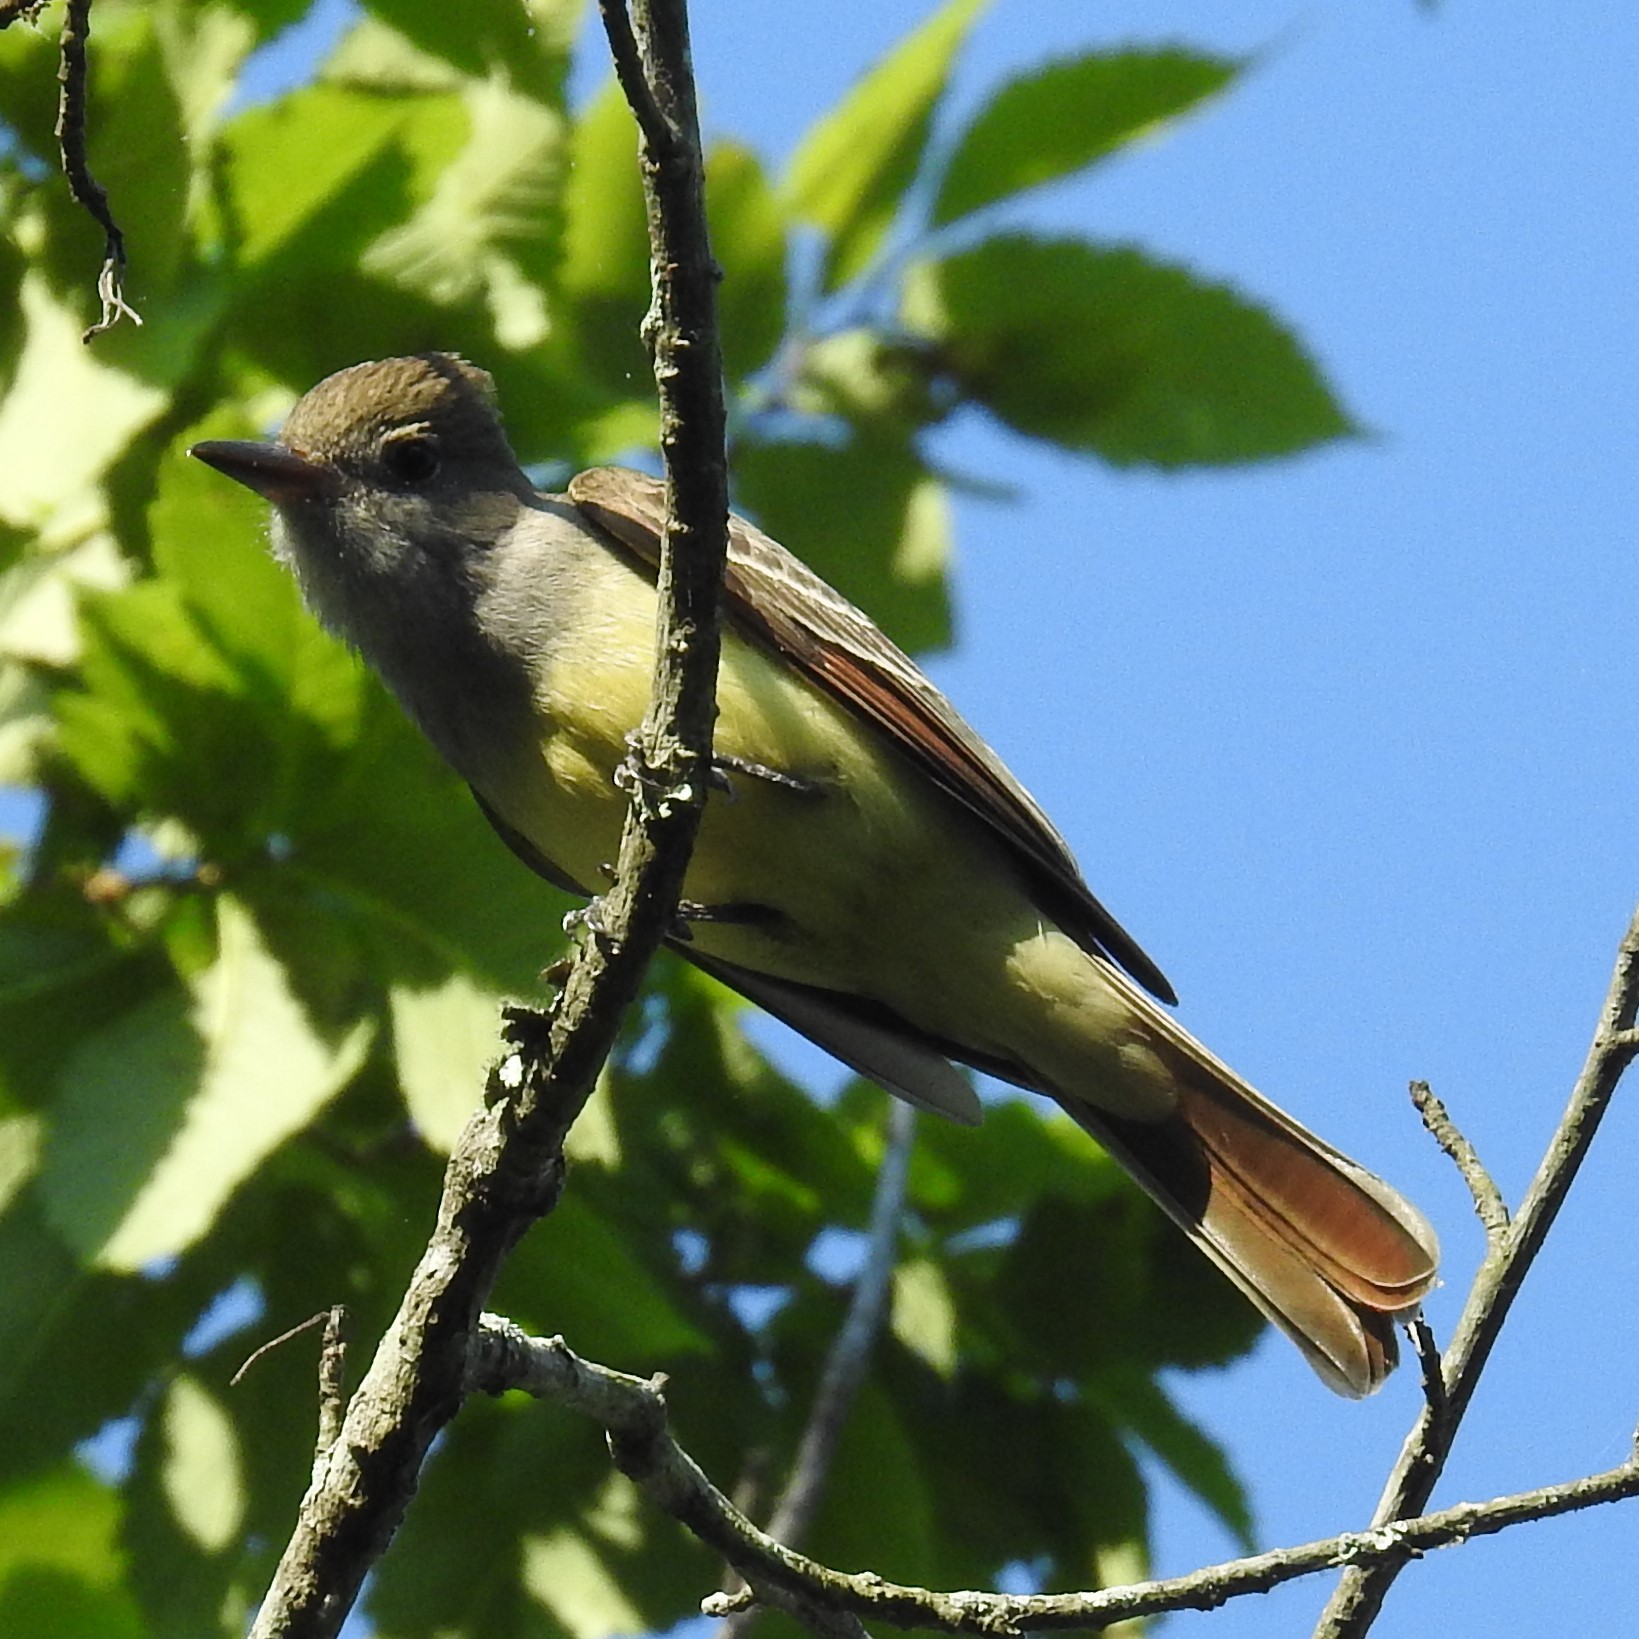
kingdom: Animalia
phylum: Chordata
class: Aves
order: Passeriformes
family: Tyrannidae
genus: Myiarchus
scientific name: Myiarchus crinitus
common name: Great crested flycatcher
